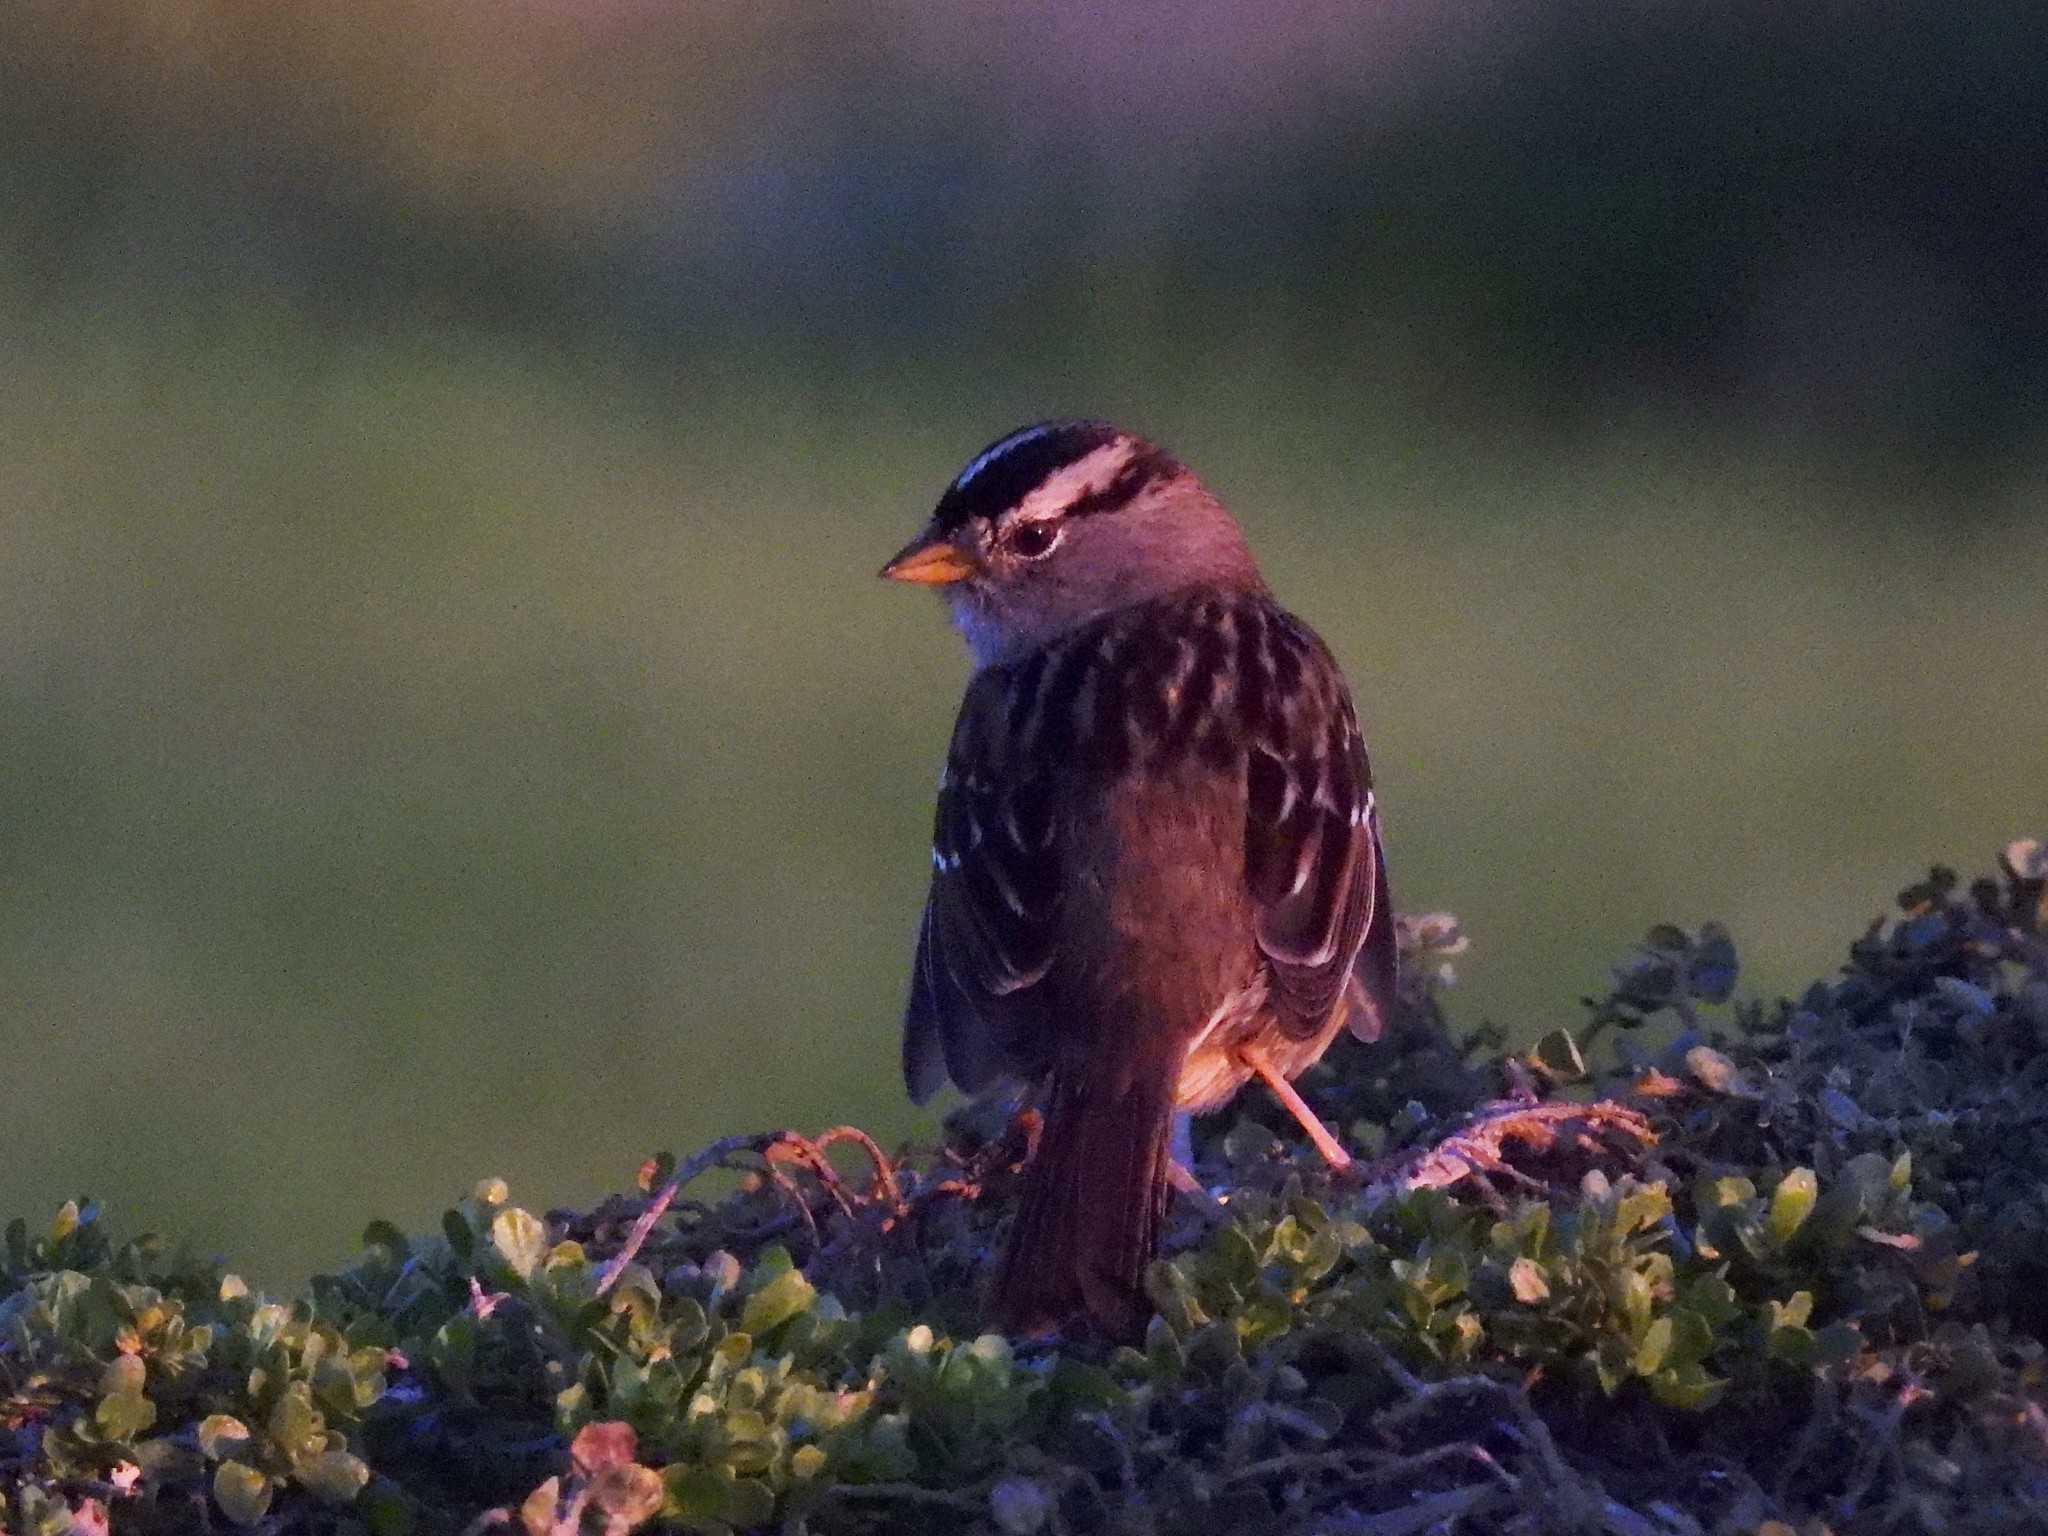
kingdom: Animalia
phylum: Chordata
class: Aves
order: Passeriformes
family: Passerellidae
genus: Zonotrichia
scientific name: Zonotrichia leucophrys
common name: White-crowned sparrow
